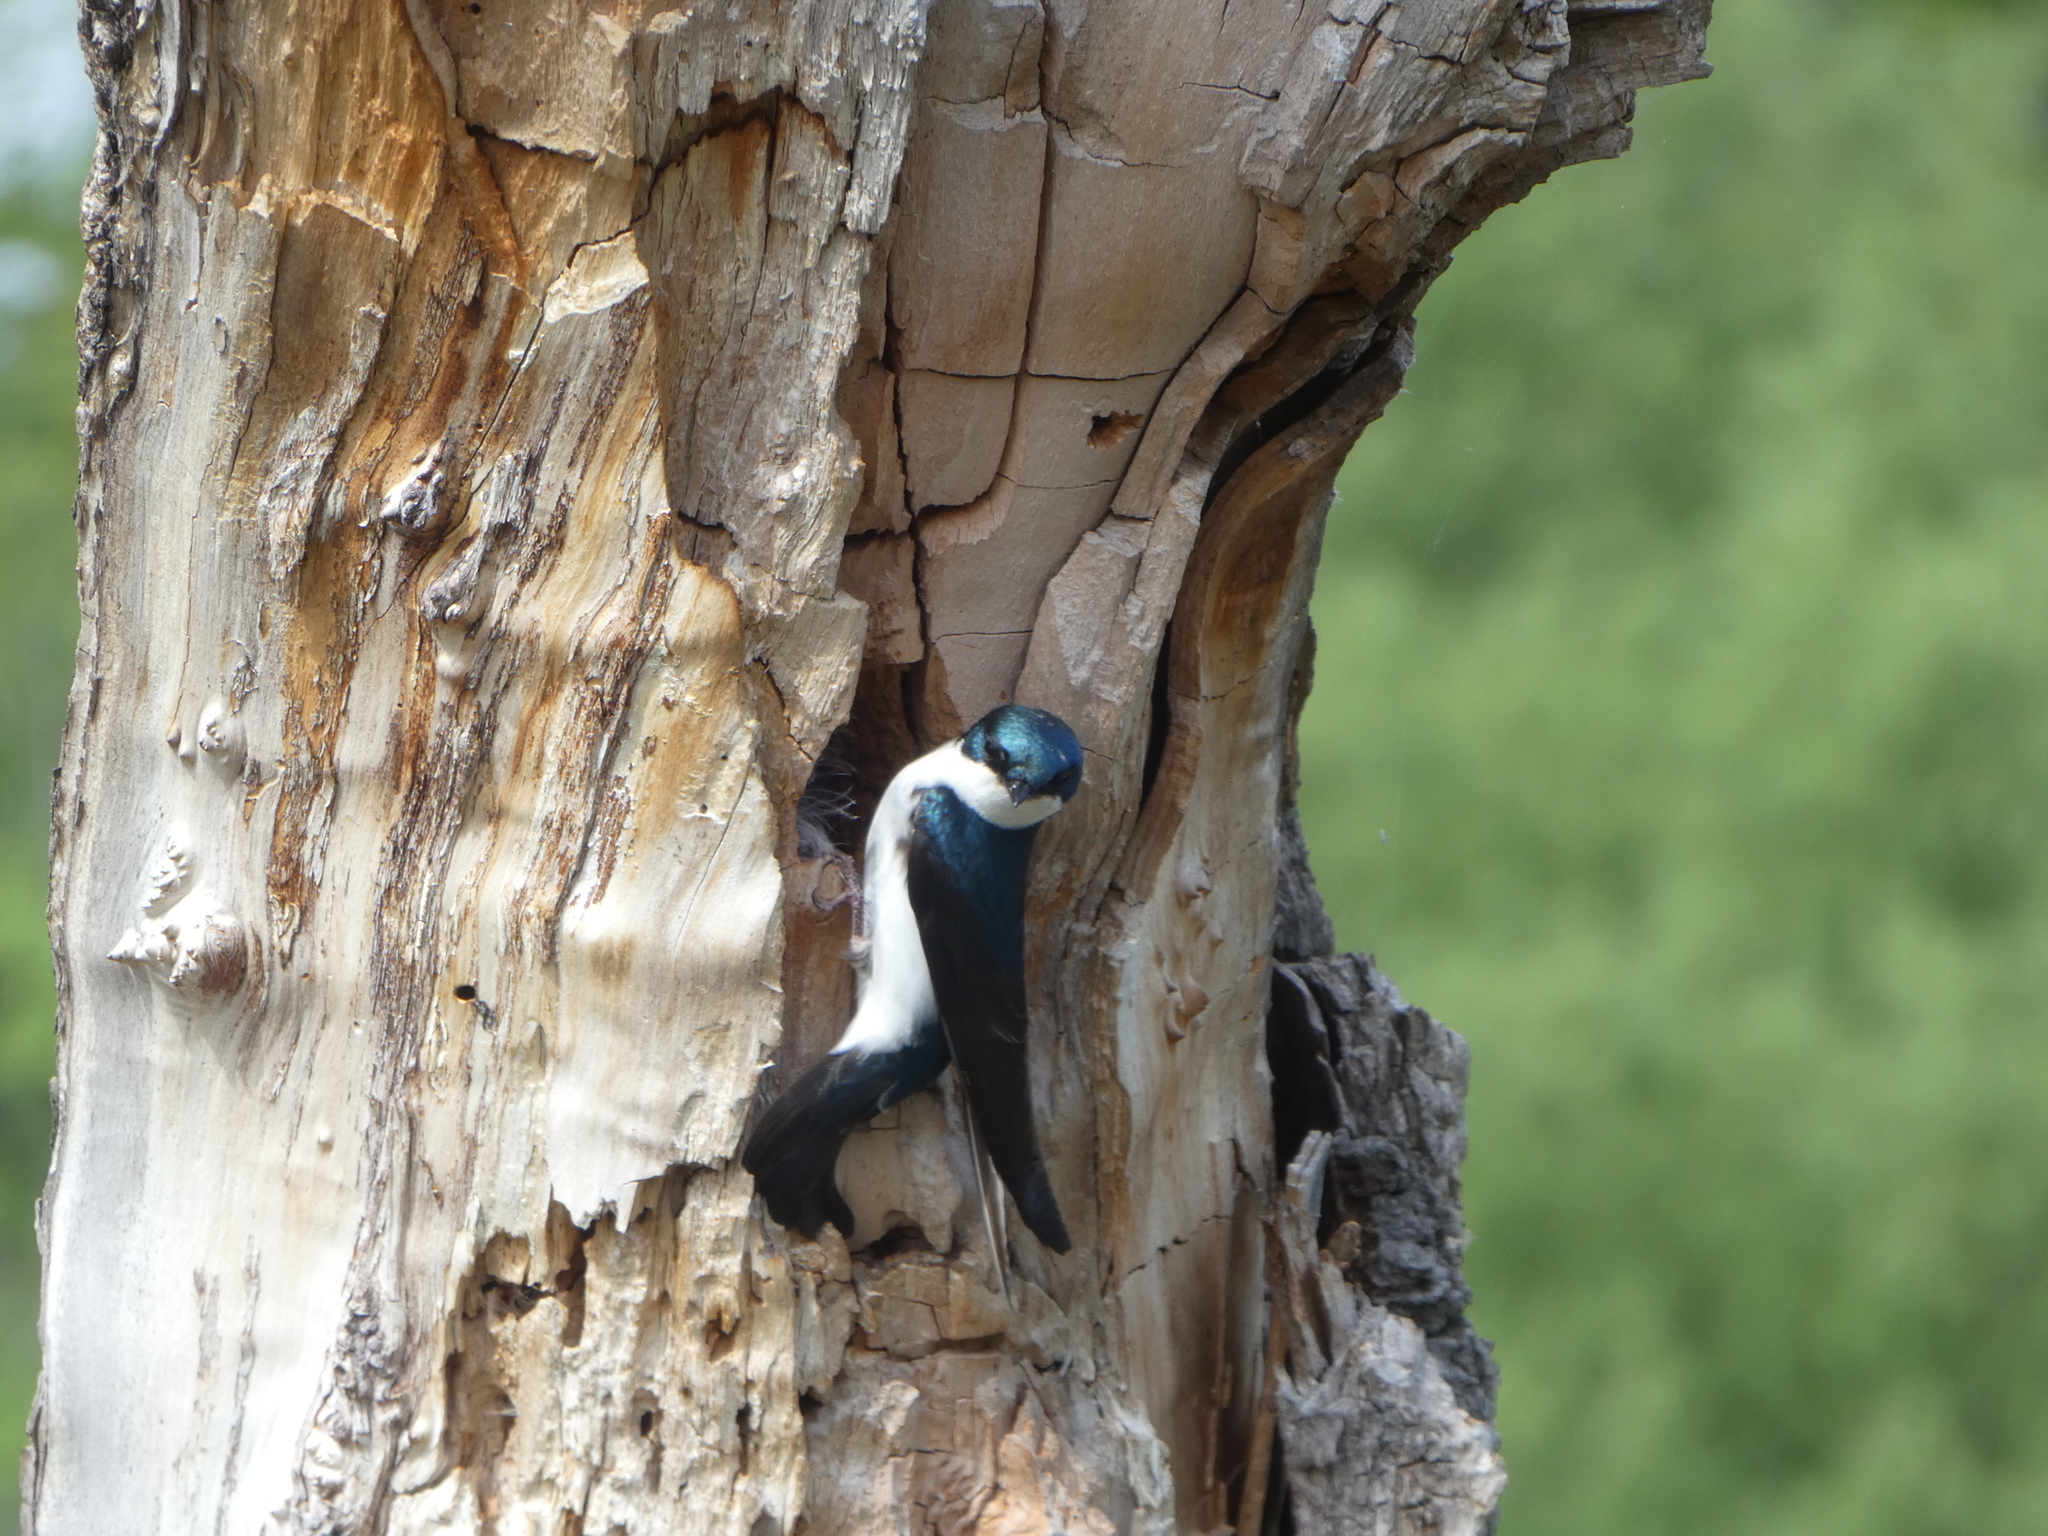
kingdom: Animalia
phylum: Chordata
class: Aves
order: Passeriformes
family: Hirundinidae
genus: Tachycineta
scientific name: Tachycineta bicolor
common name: Tree swallow
